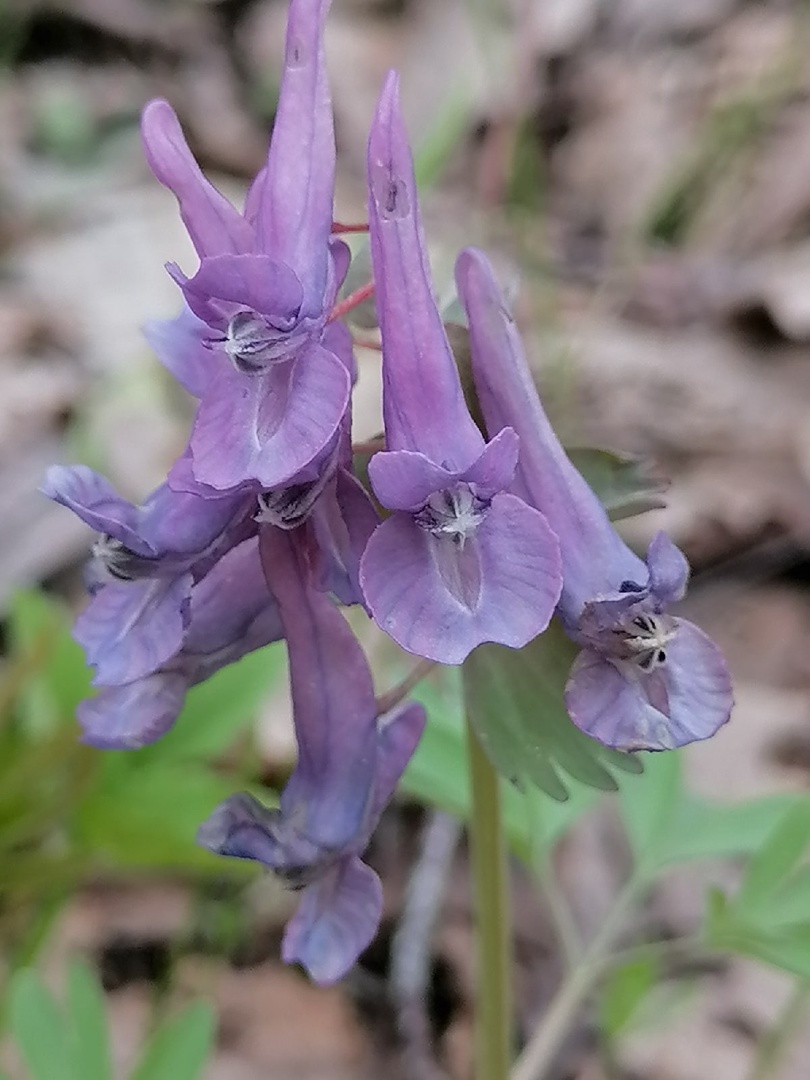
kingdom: Plantae
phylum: Tracheophyta
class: Magnoliopsida
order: Ranunculales
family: Papaveraceae
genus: Corydalis
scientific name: Corydalis solida
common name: Bird-in-a-bush
